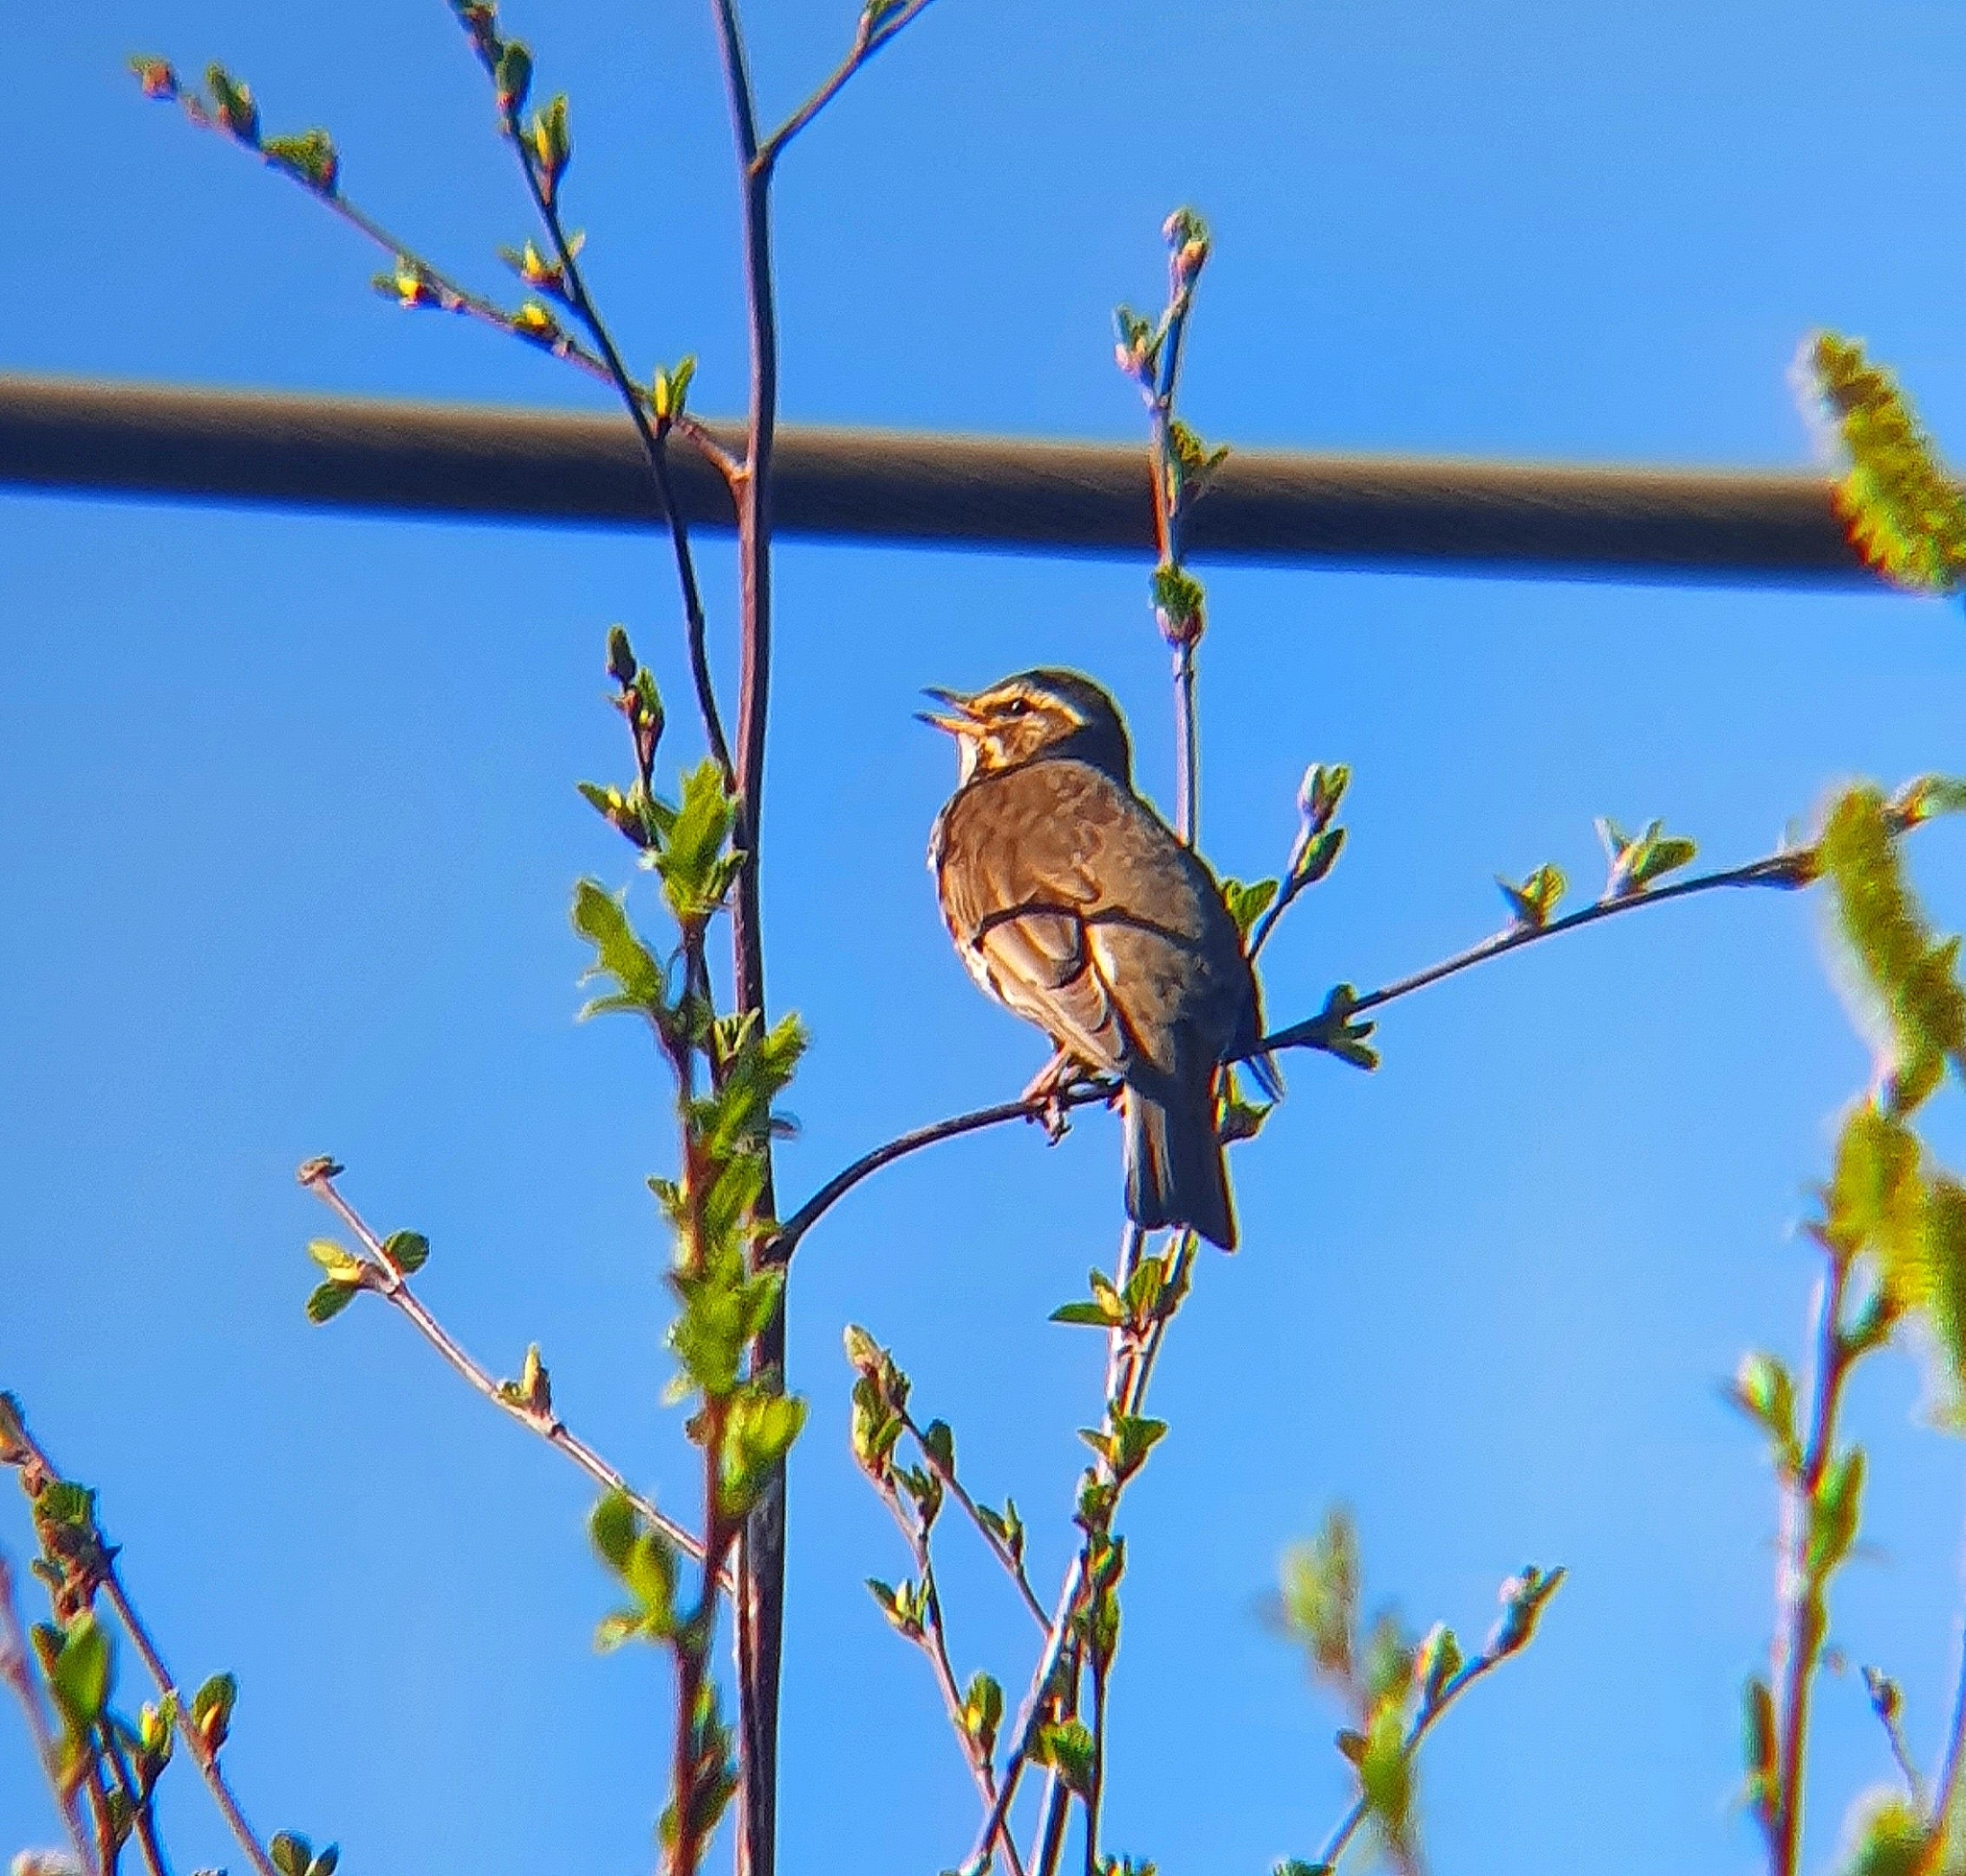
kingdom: Animalia
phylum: Chordata
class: Aves
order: Passeriformes
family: Turdidae
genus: Turdus
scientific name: Turdus iliacus
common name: Redwing
